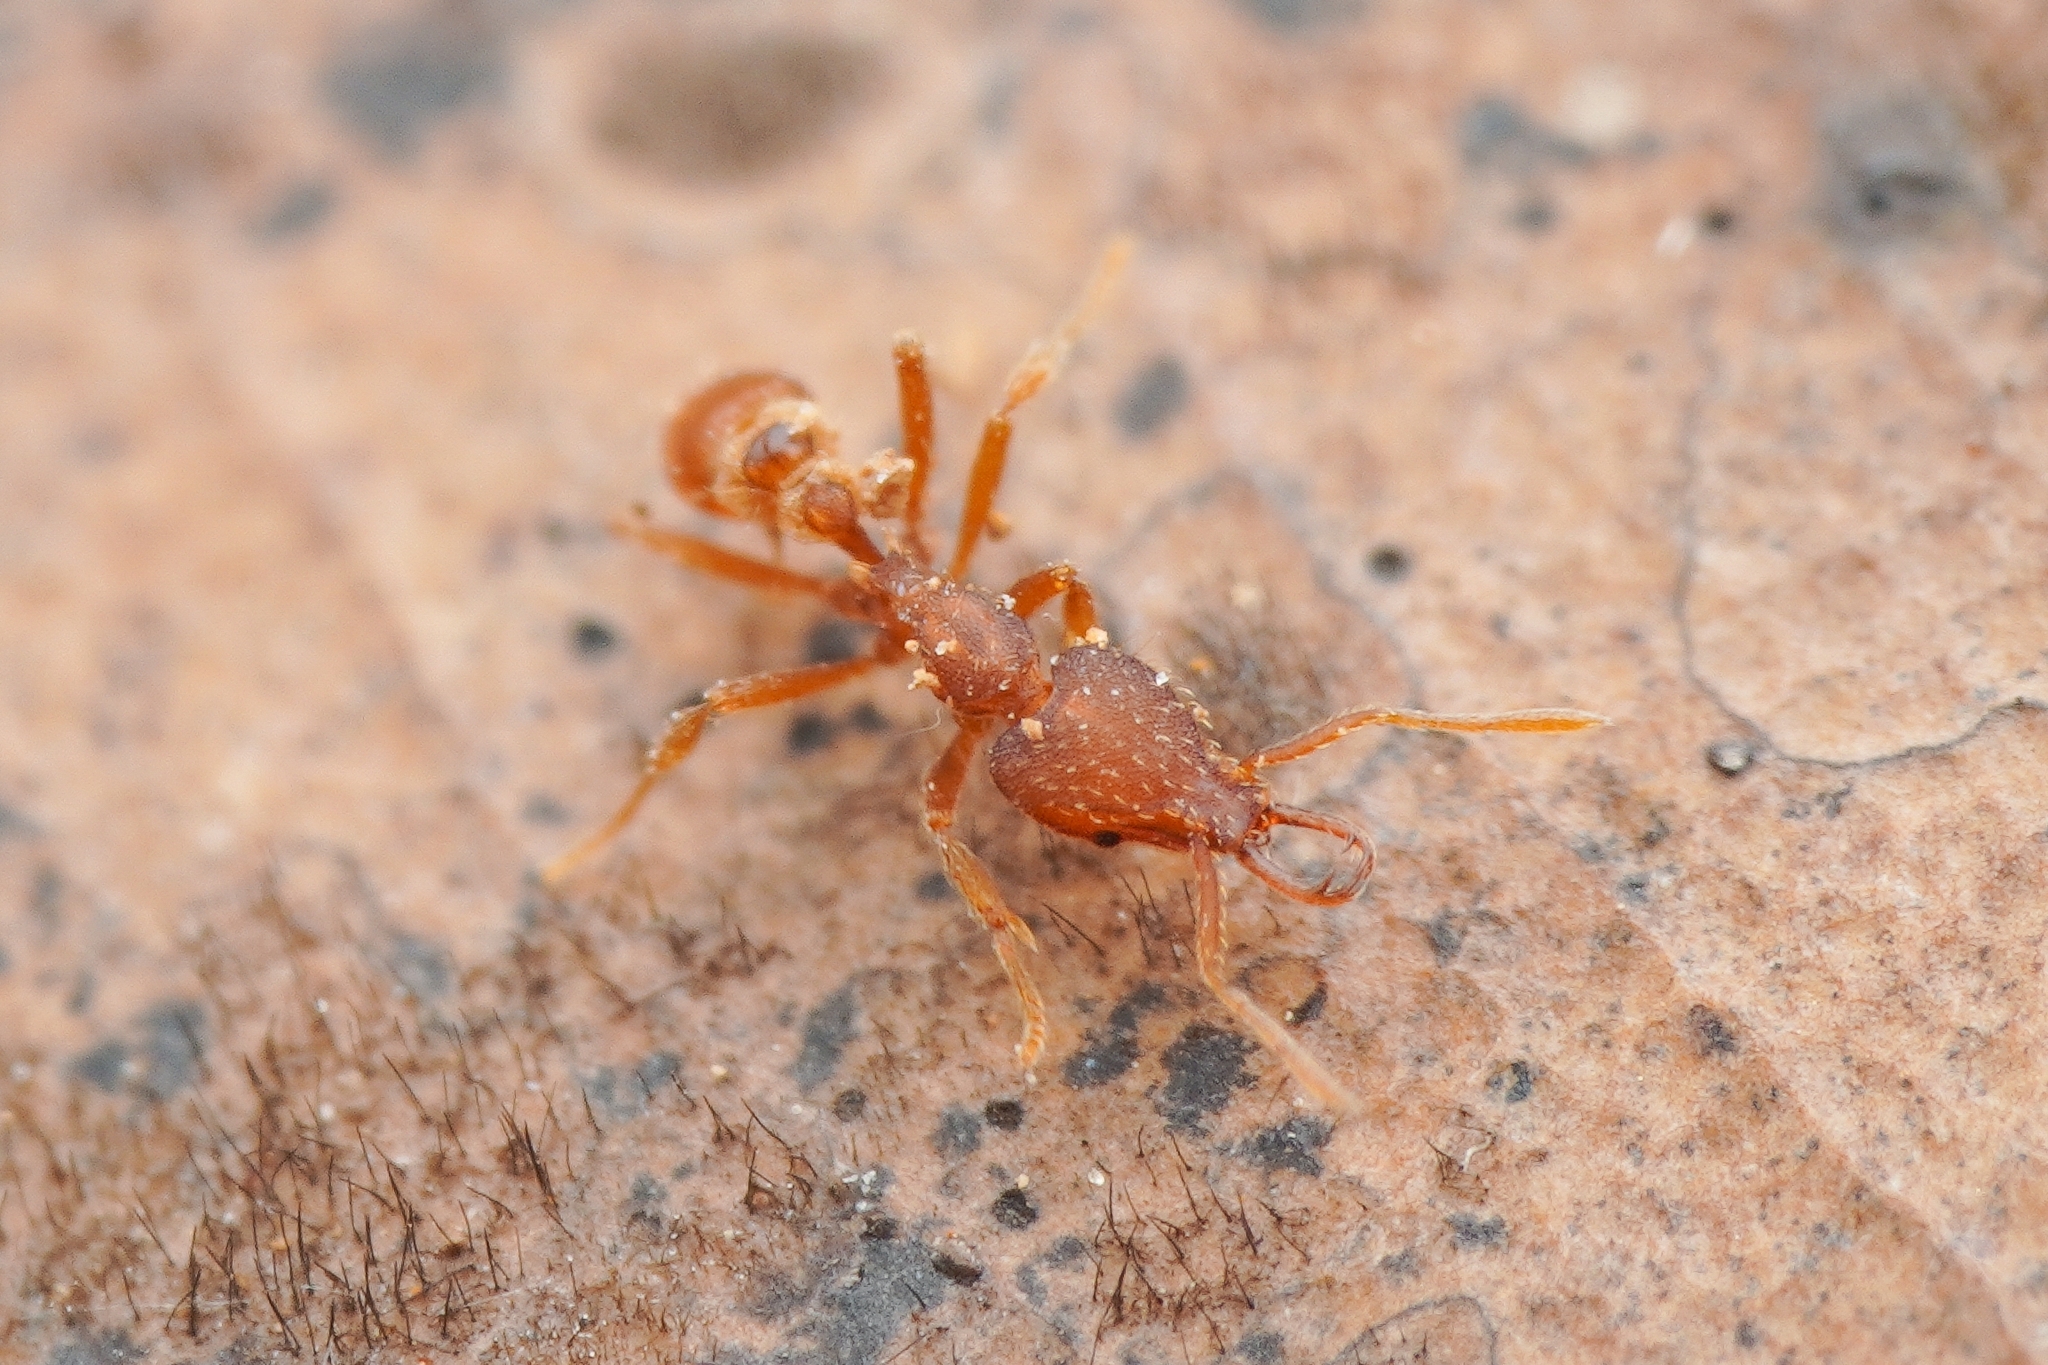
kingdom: Animalia
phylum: Arthropoda
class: Insecta
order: Hymenoptera
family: Formicidae
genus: Strumigenys
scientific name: Strumigenys kumadori
